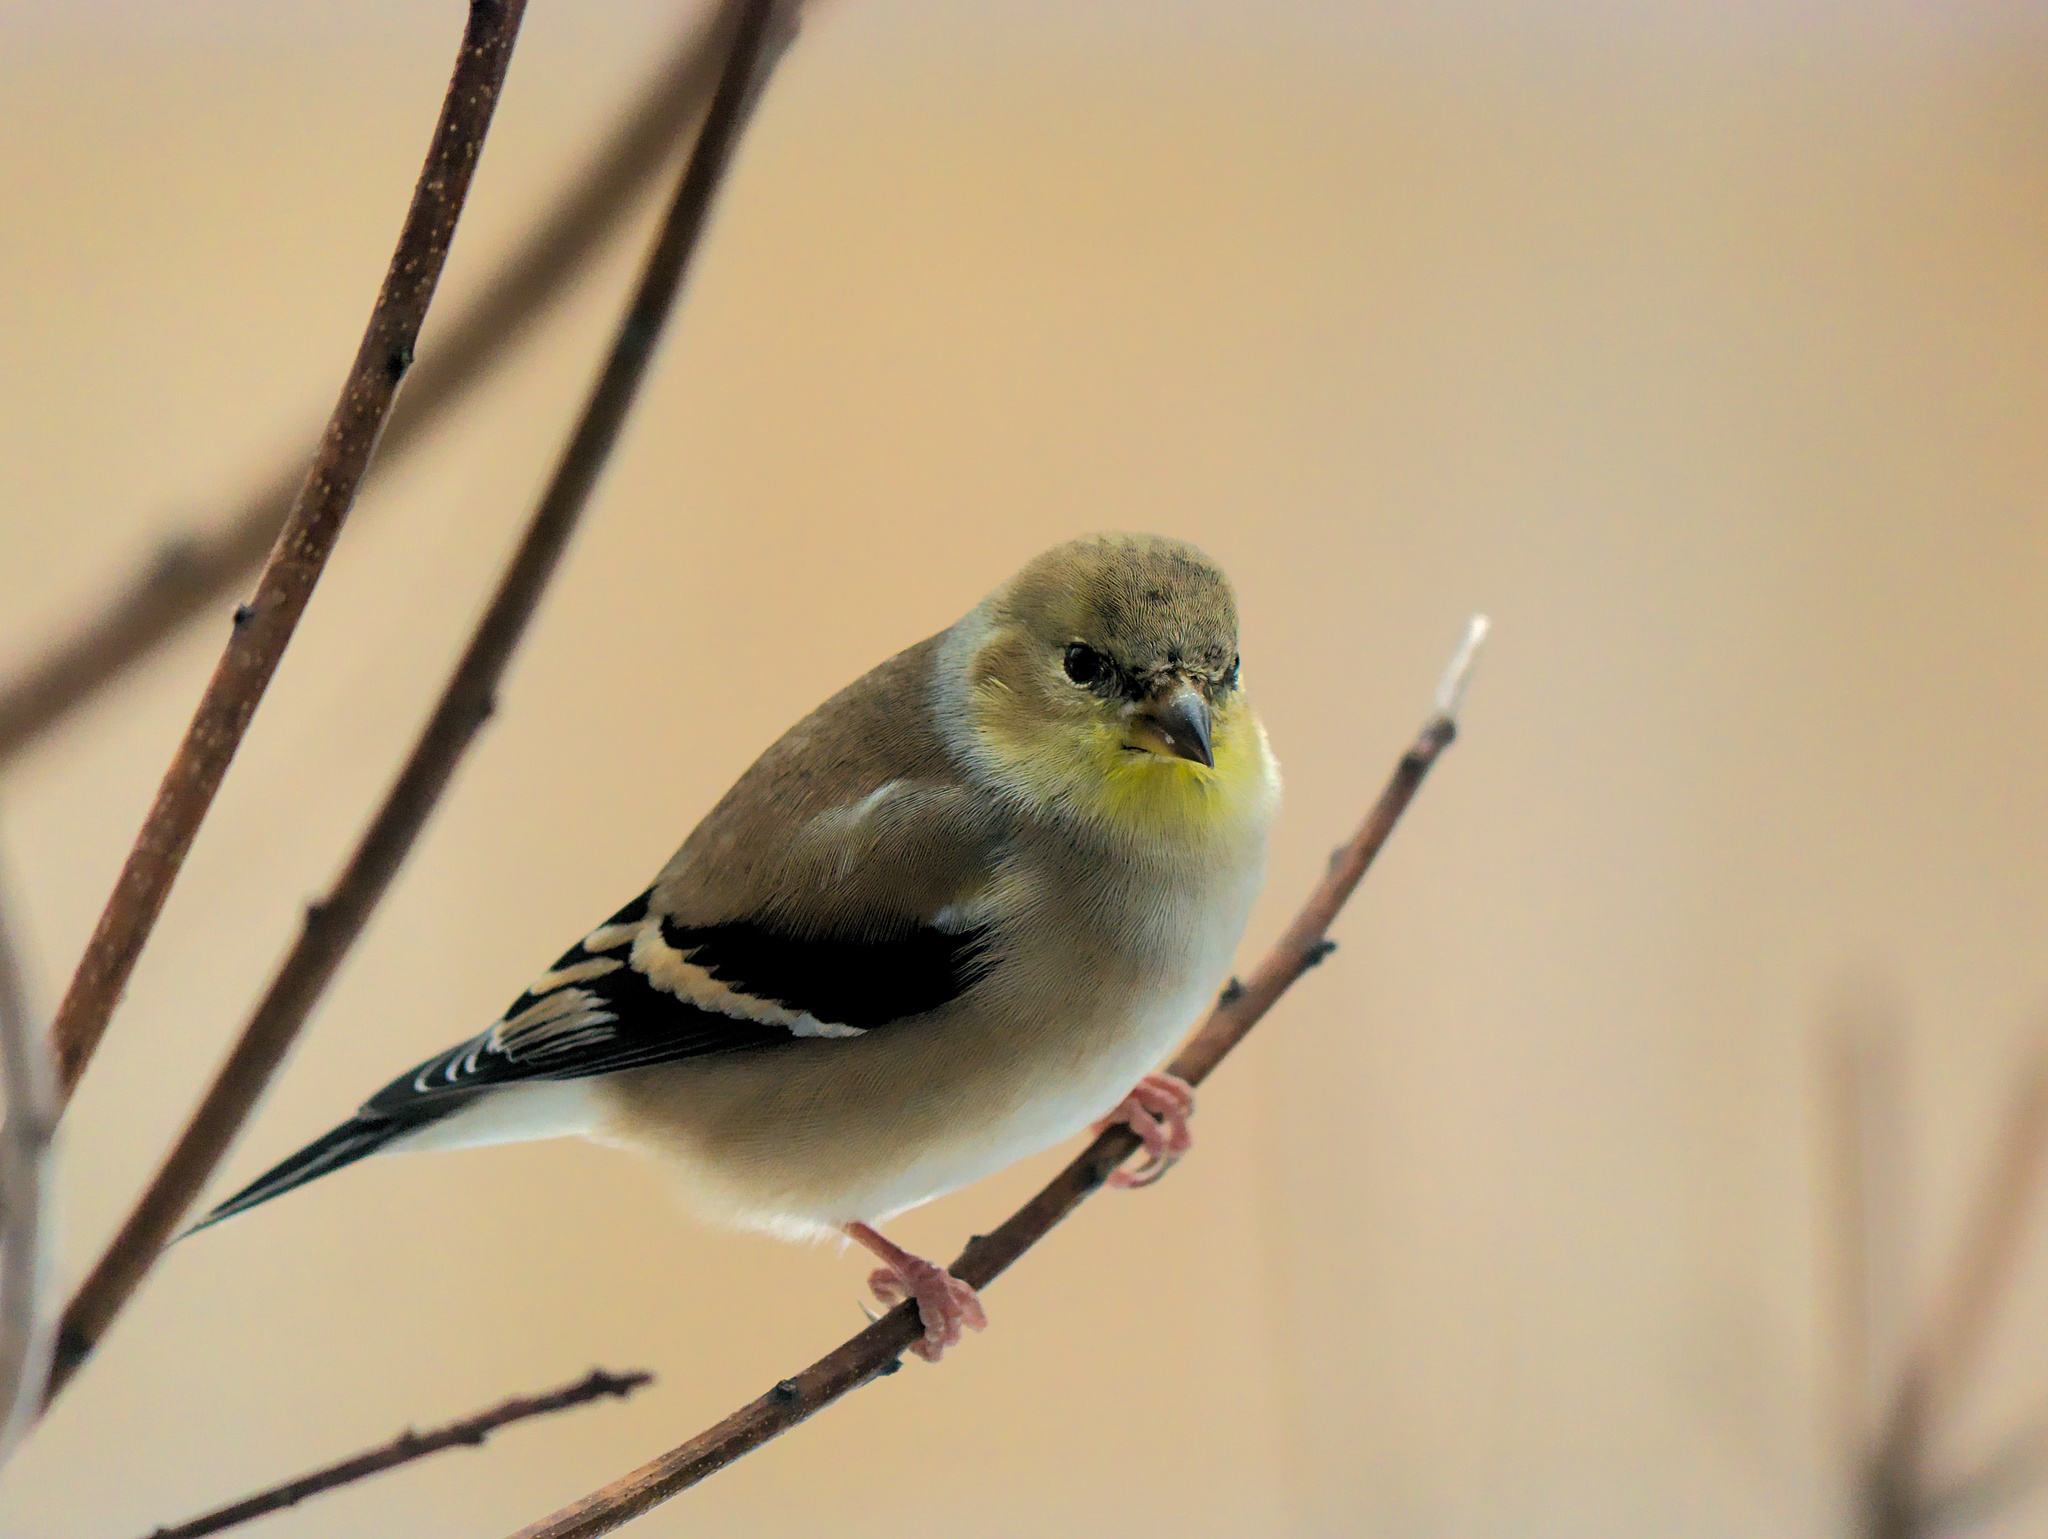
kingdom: Animalia
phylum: Chordata
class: Aves
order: Passeriformes
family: Fringillidae
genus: Spinus
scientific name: Spinus tristis
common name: American goldfinch
